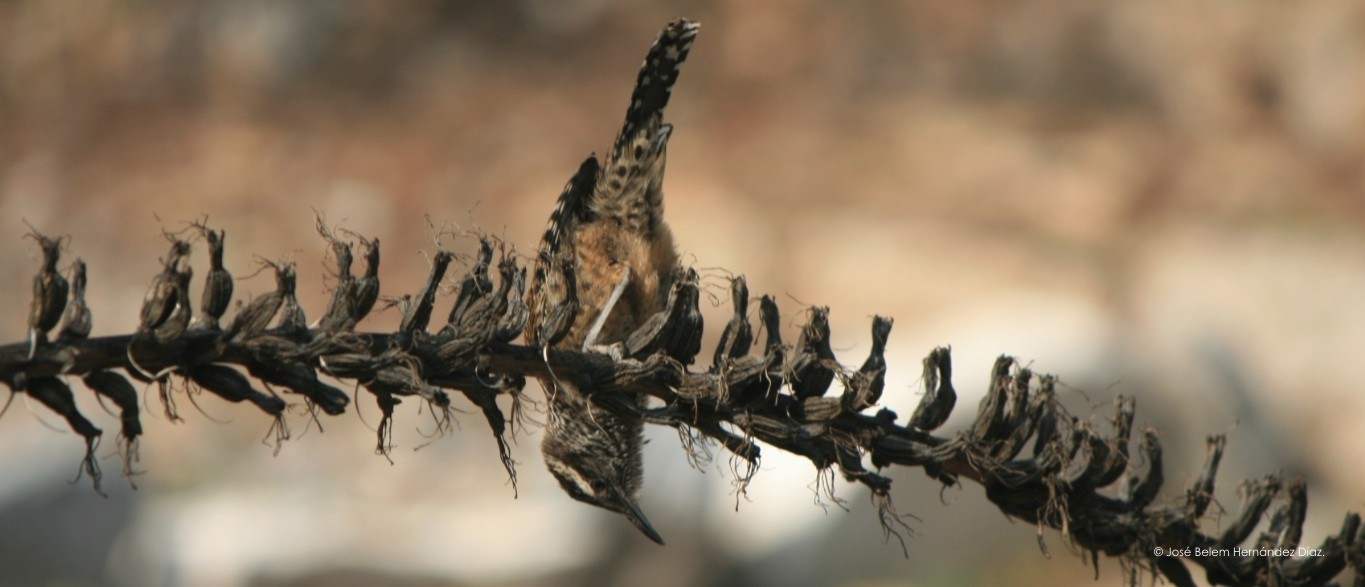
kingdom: Animalia
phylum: Chordata
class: Aves
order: Passeriformes
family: Troglodytidae
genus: Campylorhynchus
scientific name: Campylorhynchus brunneicapillus
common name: Cactus wren
